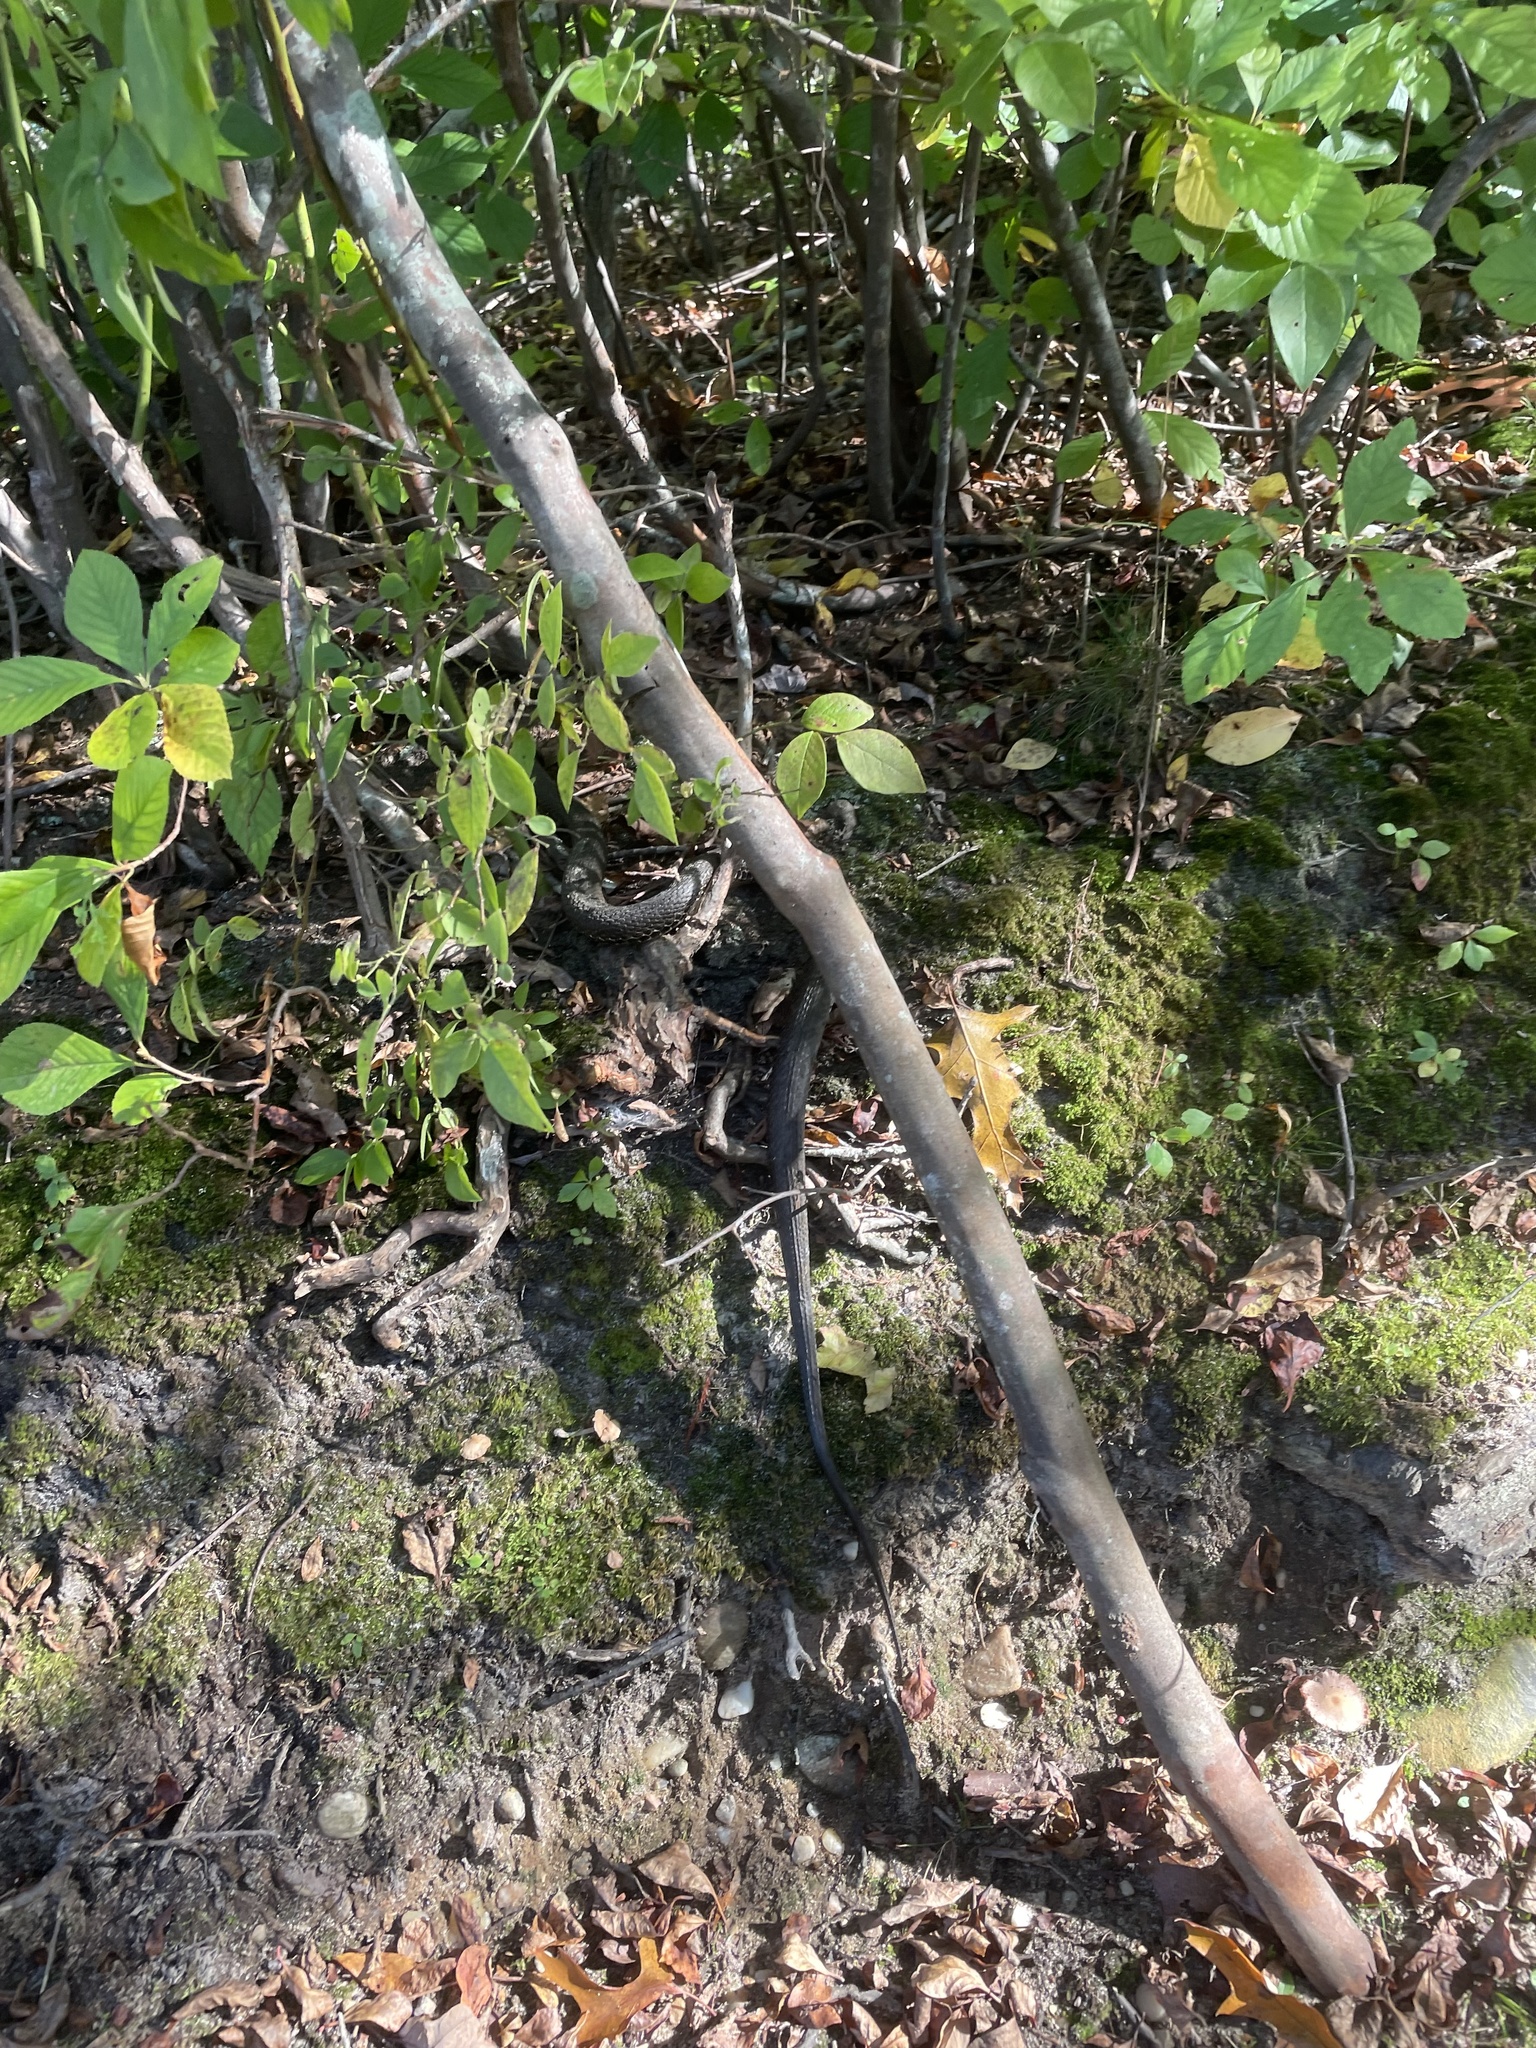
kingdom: Animalia
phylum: Chordata
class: Squamata
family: Colubridae
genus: Nerodia
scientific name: Nerodia sipedon
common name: Northern water snake
